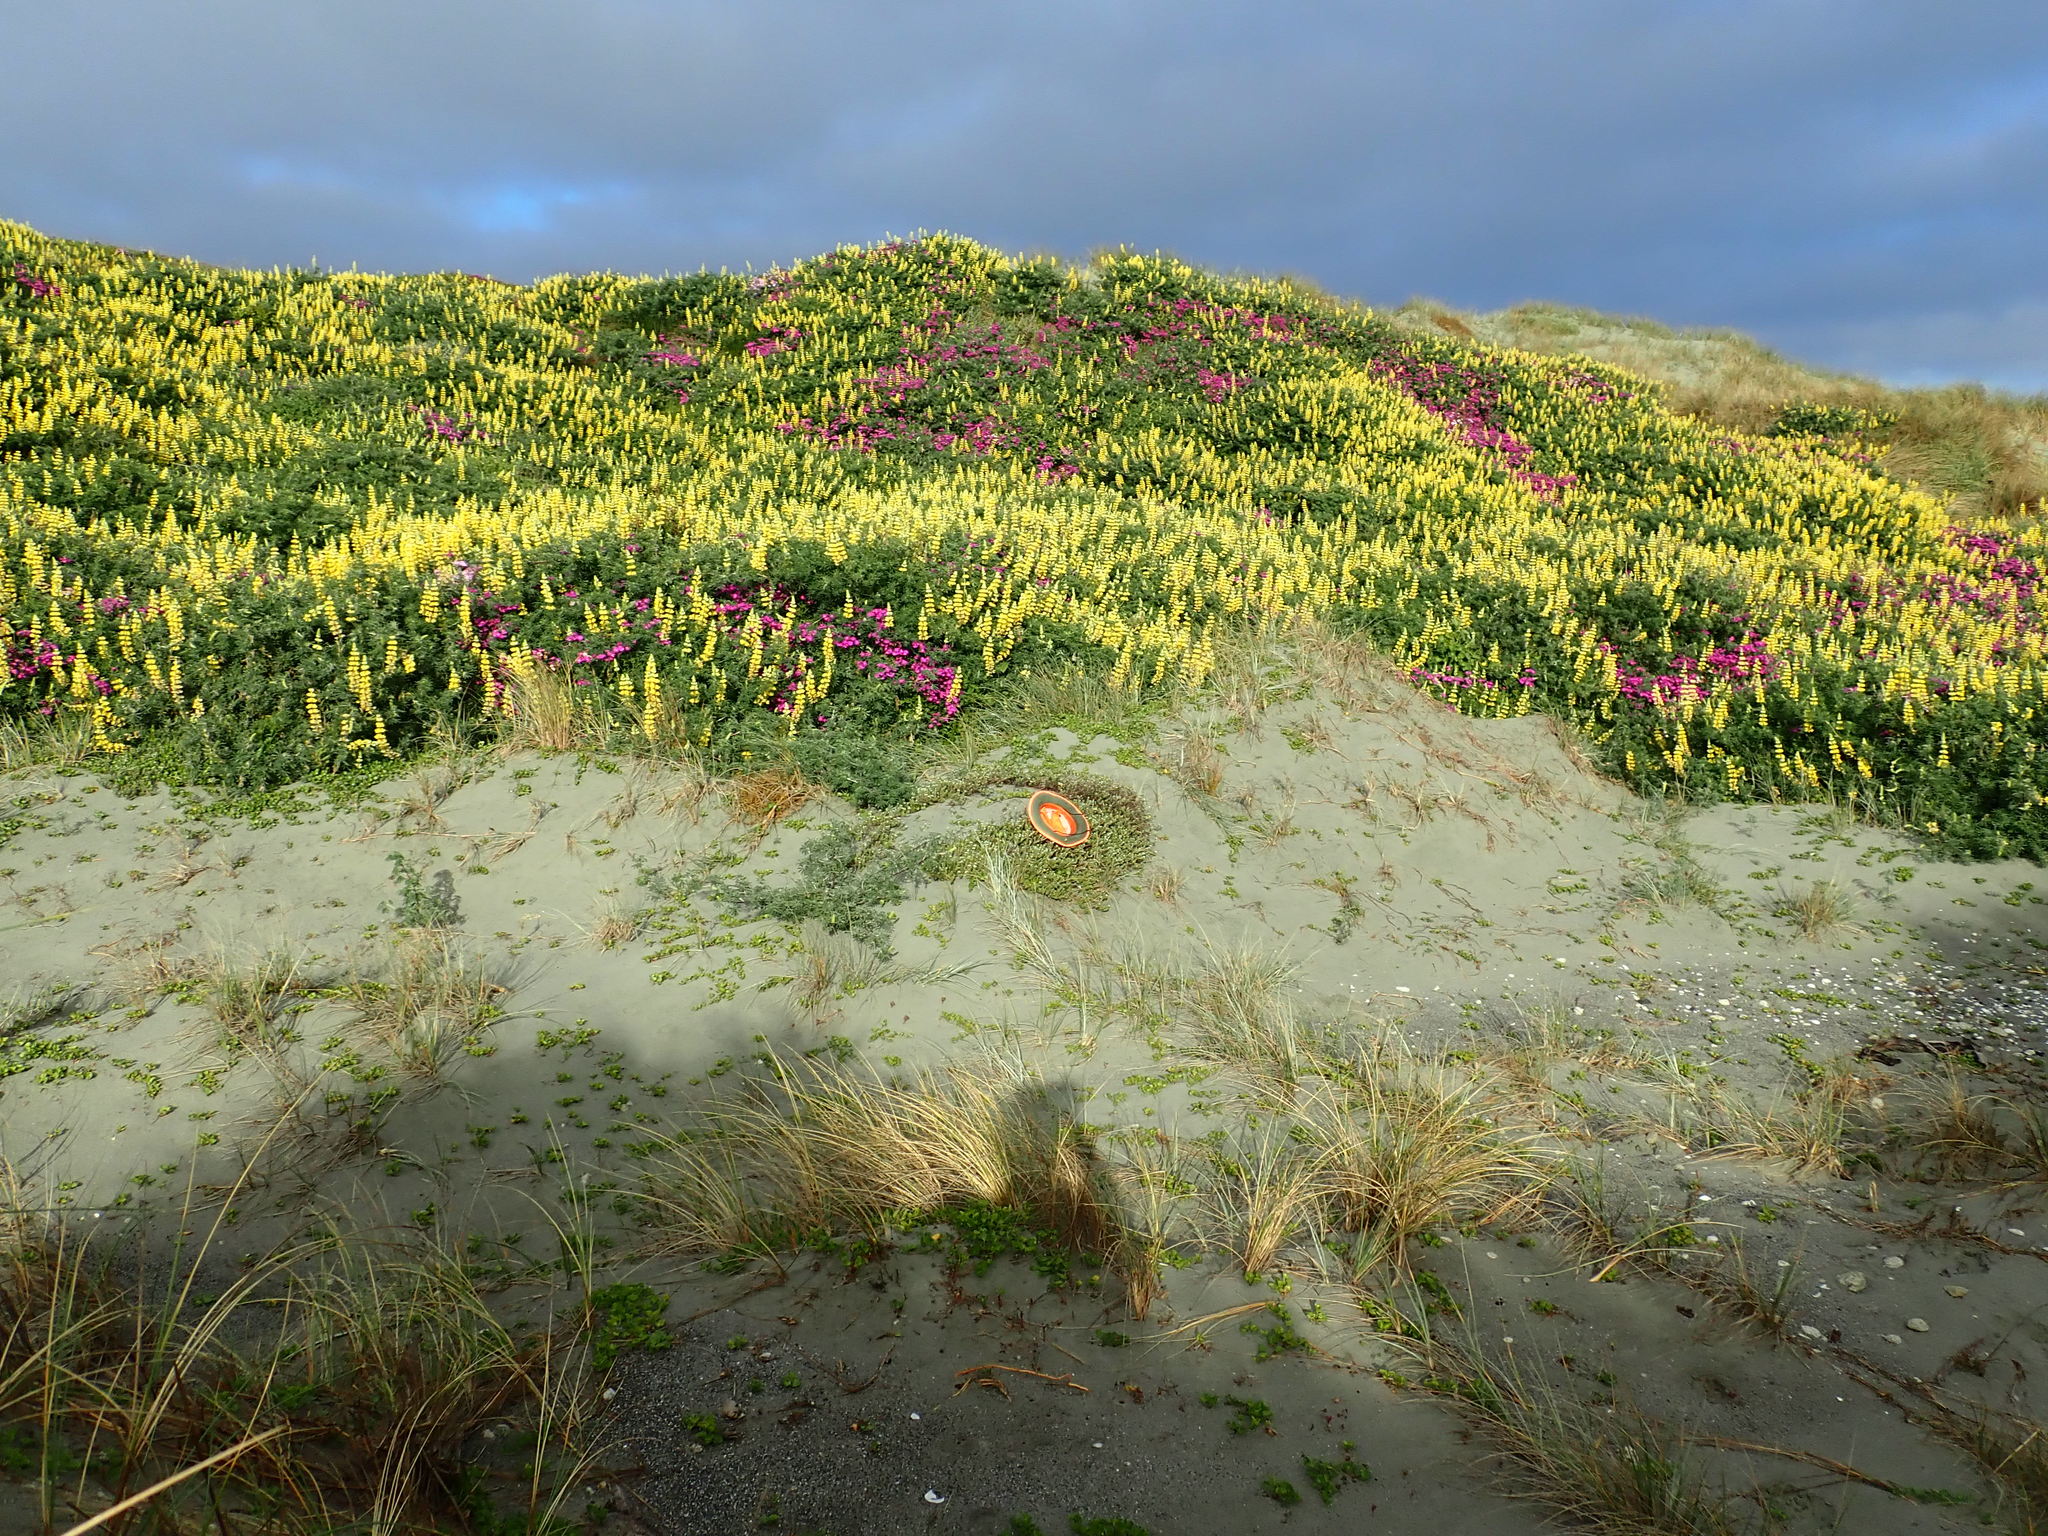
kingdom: Plantae
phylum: Tracheophyta
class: Magnoliopsida
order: Fabales
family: Fabaceae
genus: Lupinus
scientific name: Lupinus arboreus
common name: Yellow bush lupine
